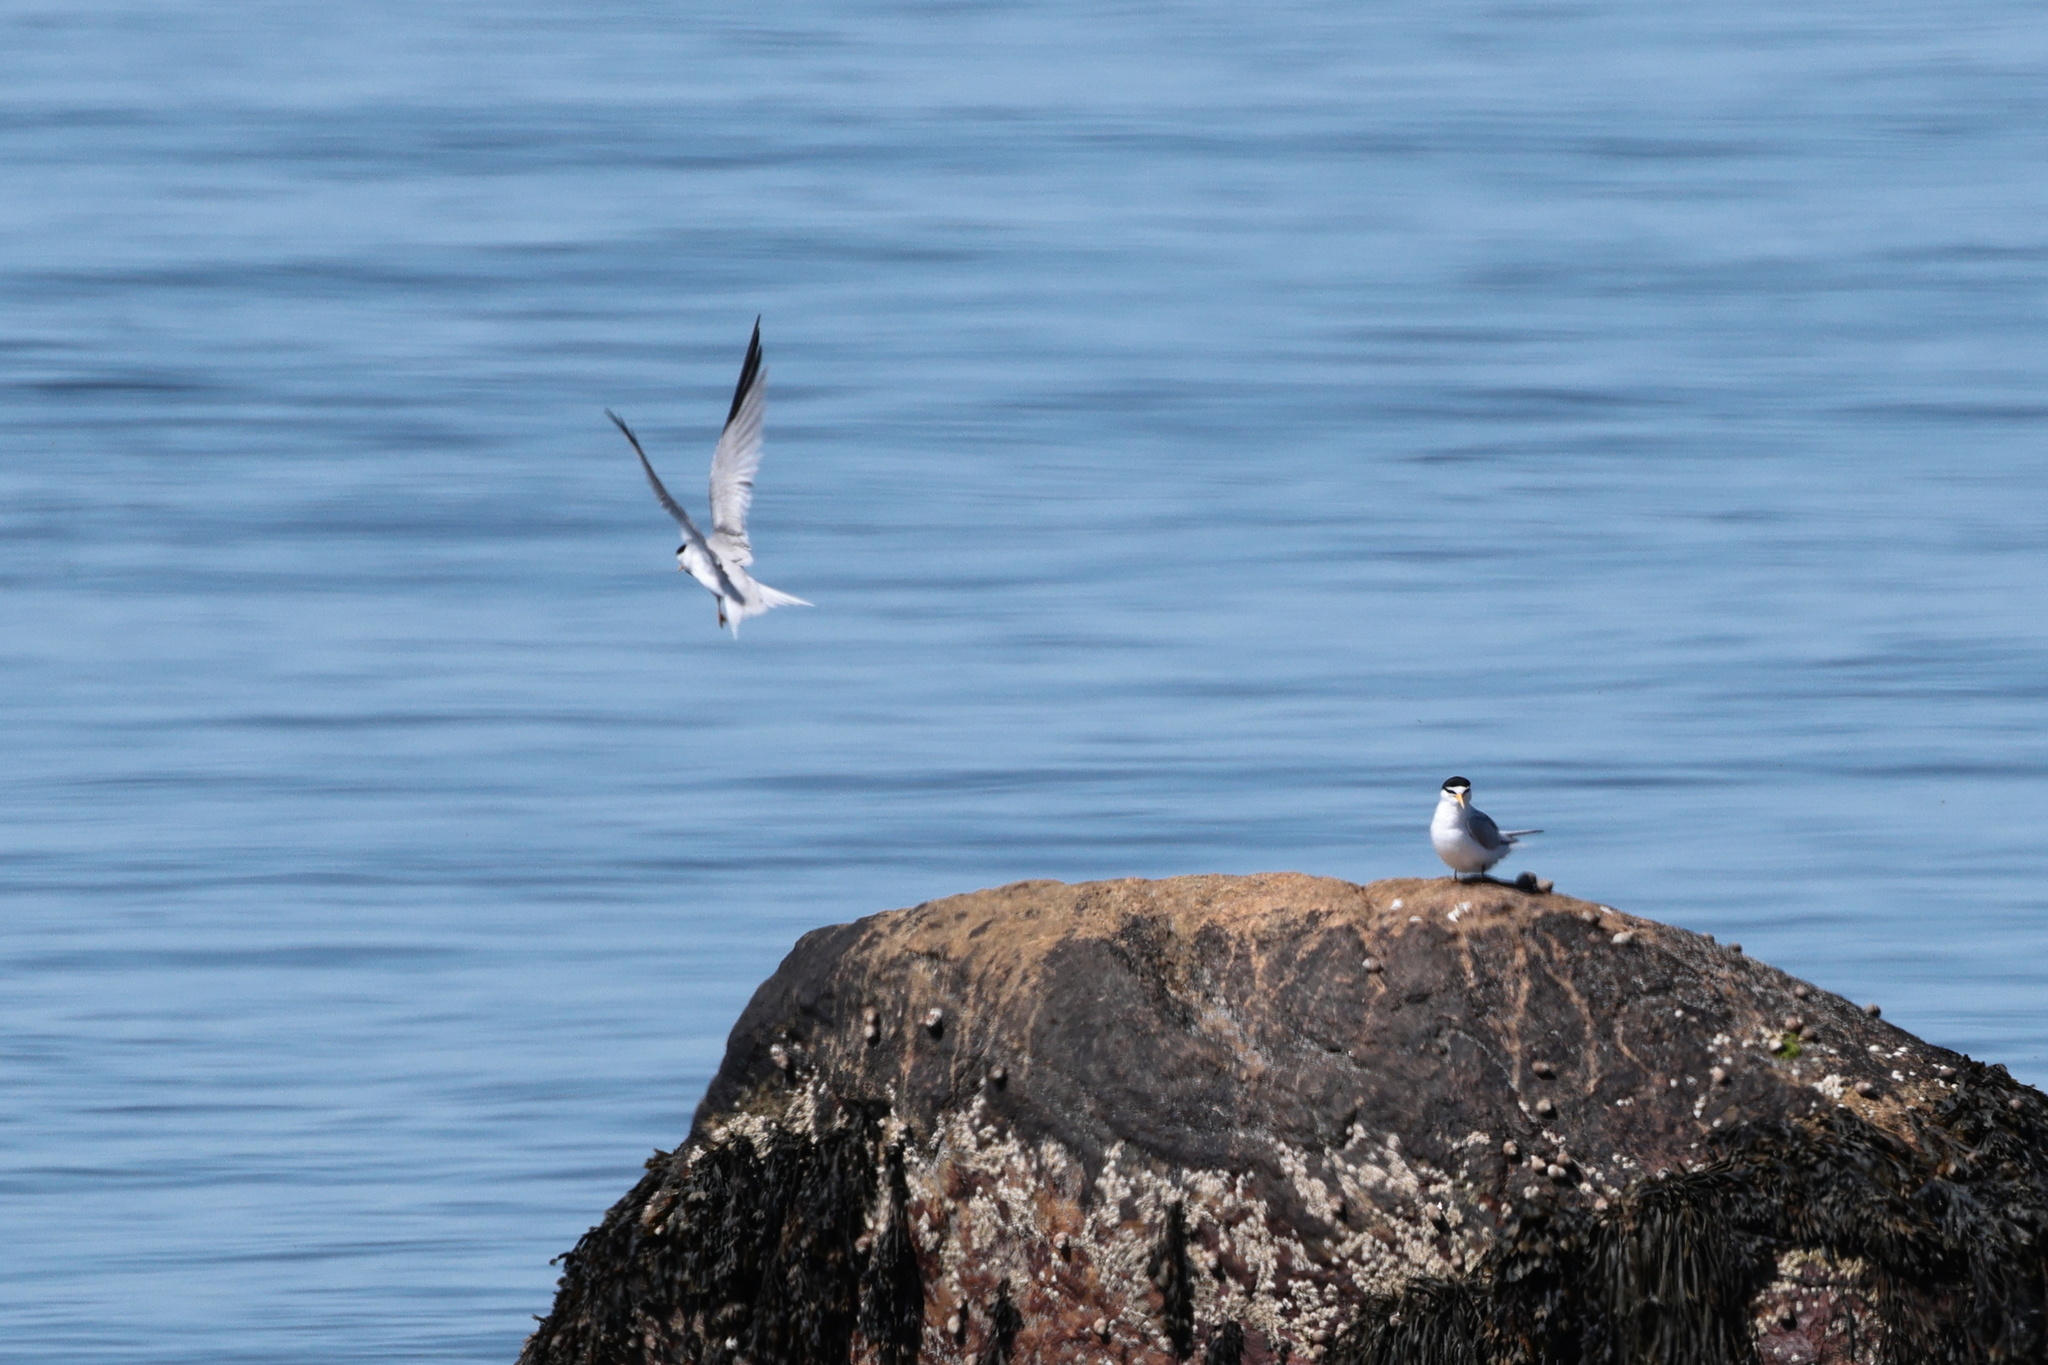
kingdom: Animalia
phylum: Chordata
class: Aves
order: Charadriiformes
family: Laridae
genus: Sternula
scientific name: Sternula antillarum
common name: Least tern
